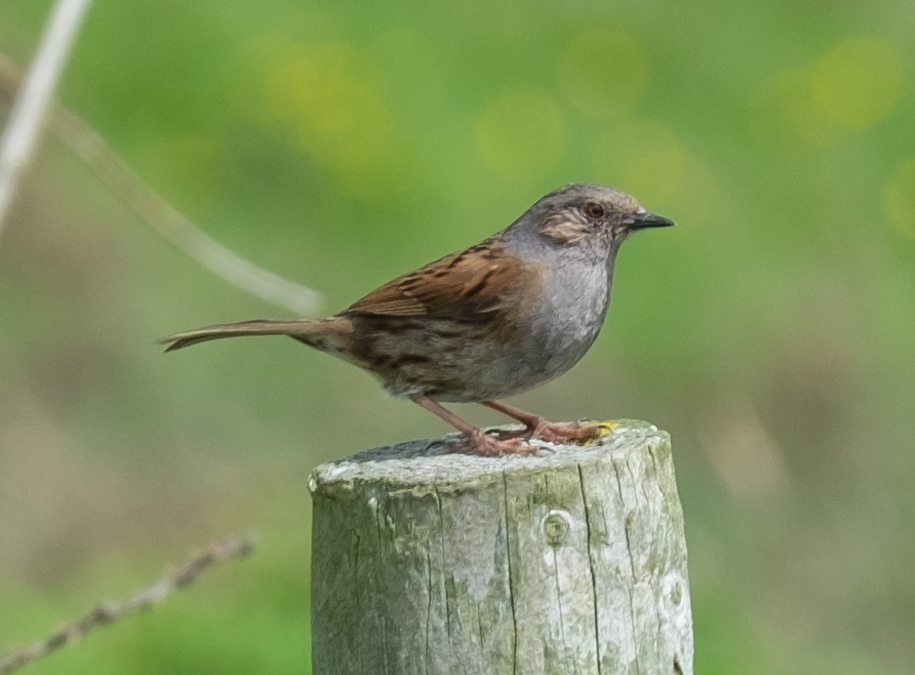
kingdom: Animalia
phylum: Chordata
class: Aves
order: Passeriformes
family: Prunellidae
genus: Prunella
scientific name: Prunella modularis
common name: Dunnock
